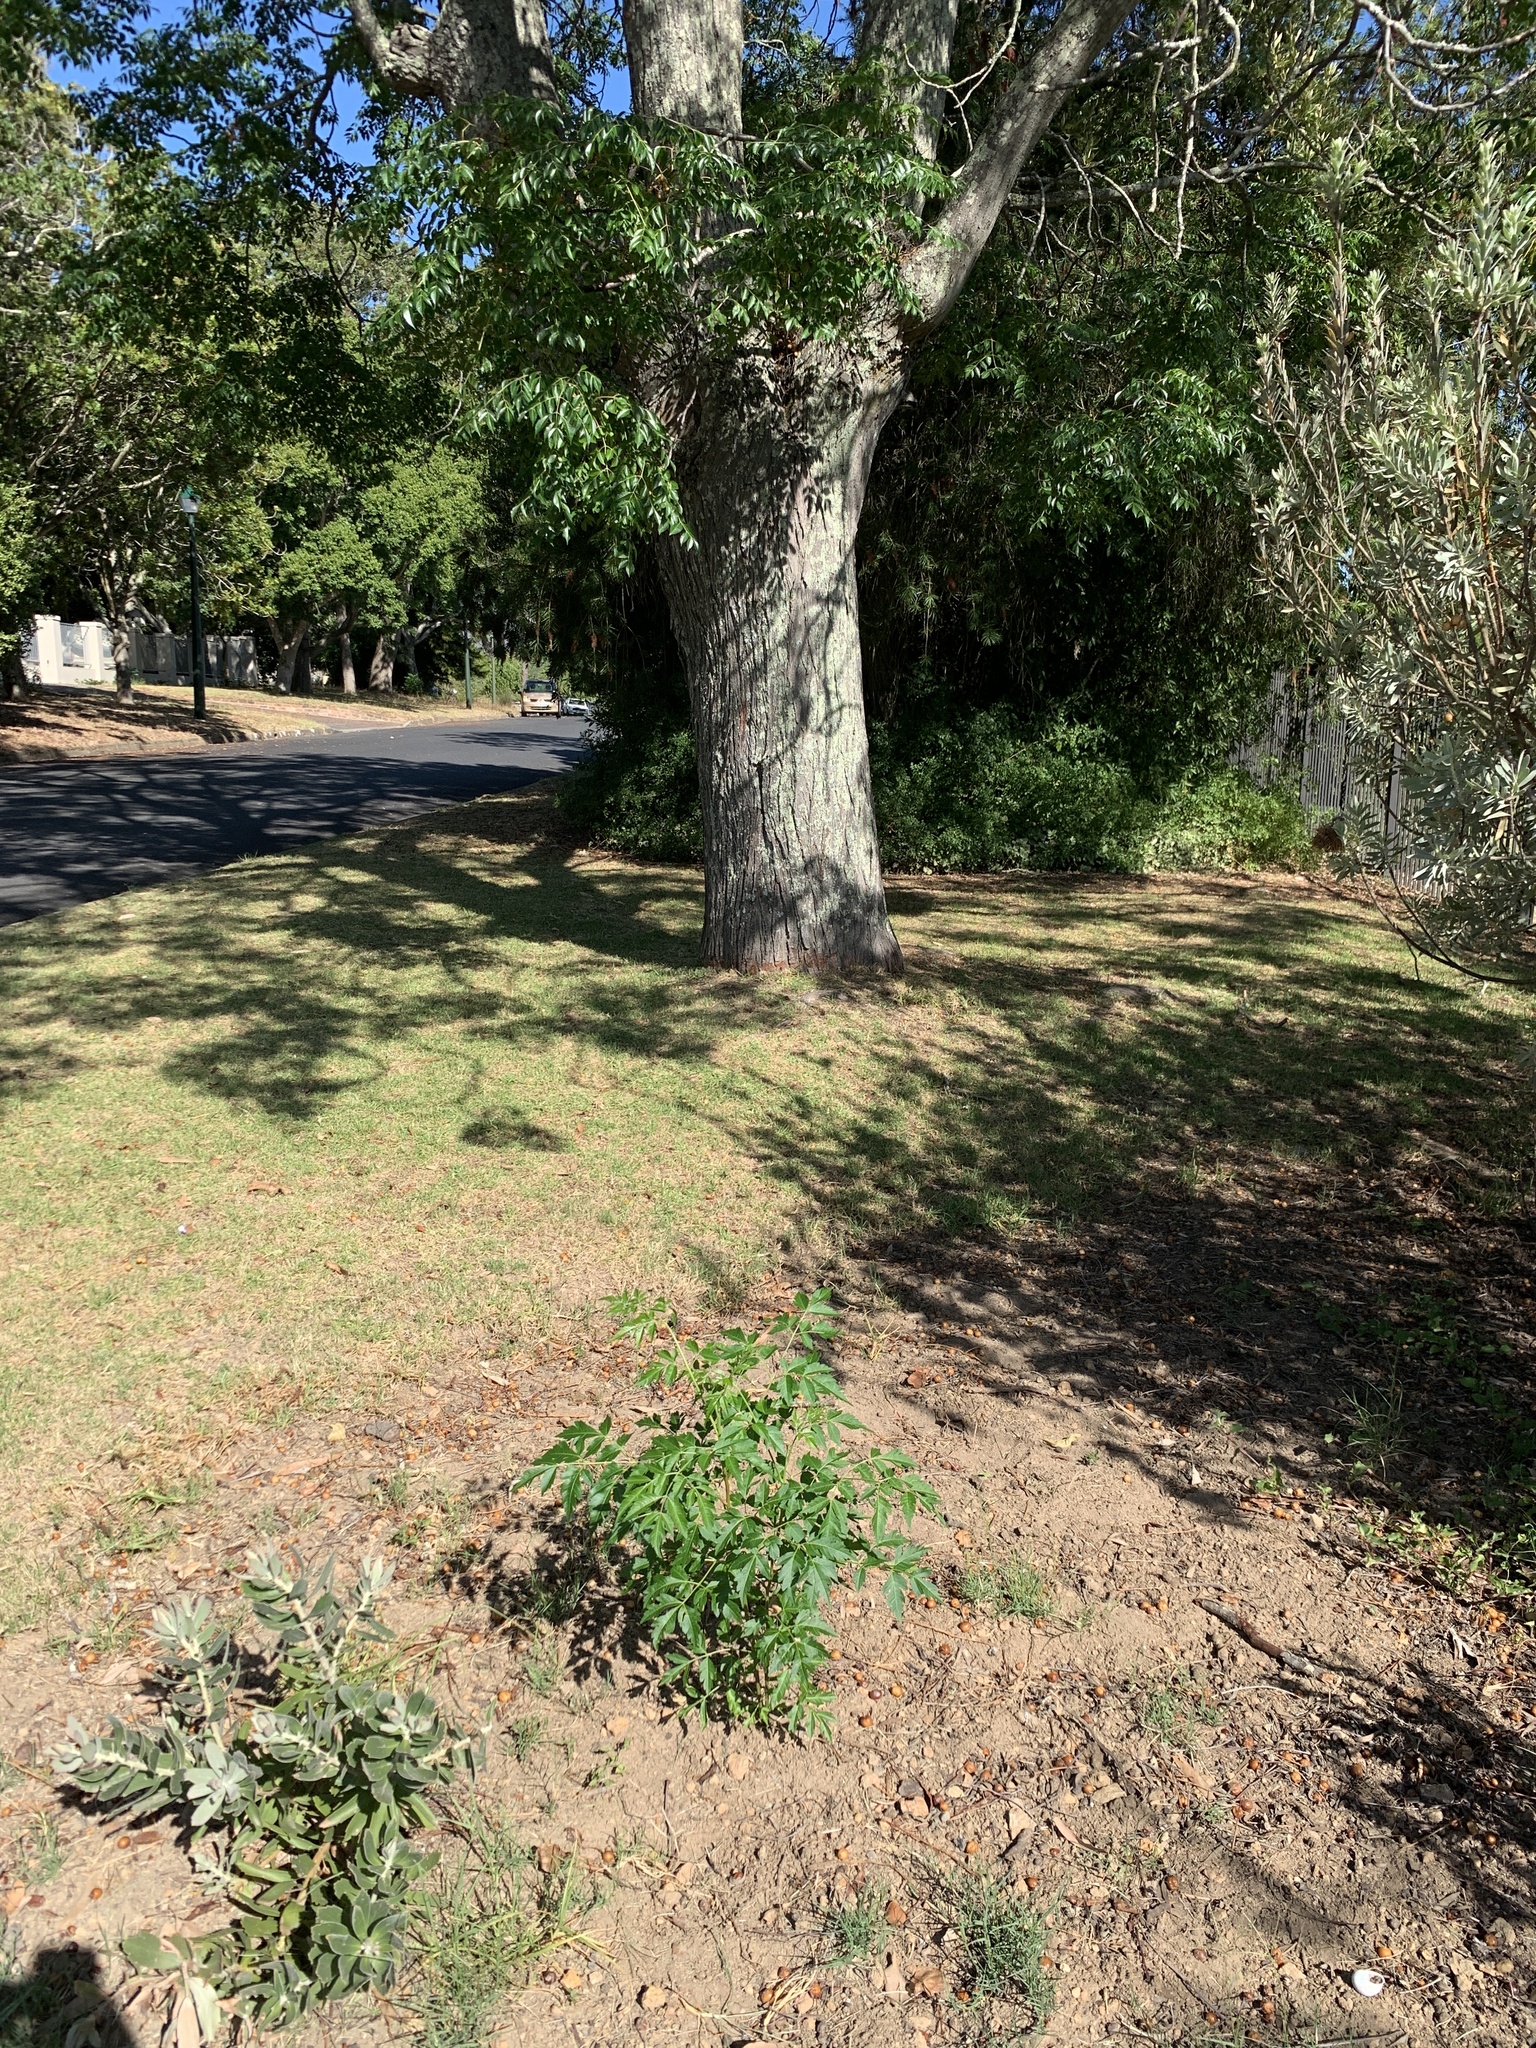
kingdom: Plantae
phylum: Tracheophyta
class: Magnoliopsida
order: Sapindales
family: Meliaceae
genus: Melia
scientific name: Melia azedarach
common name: Chinaberrytree
